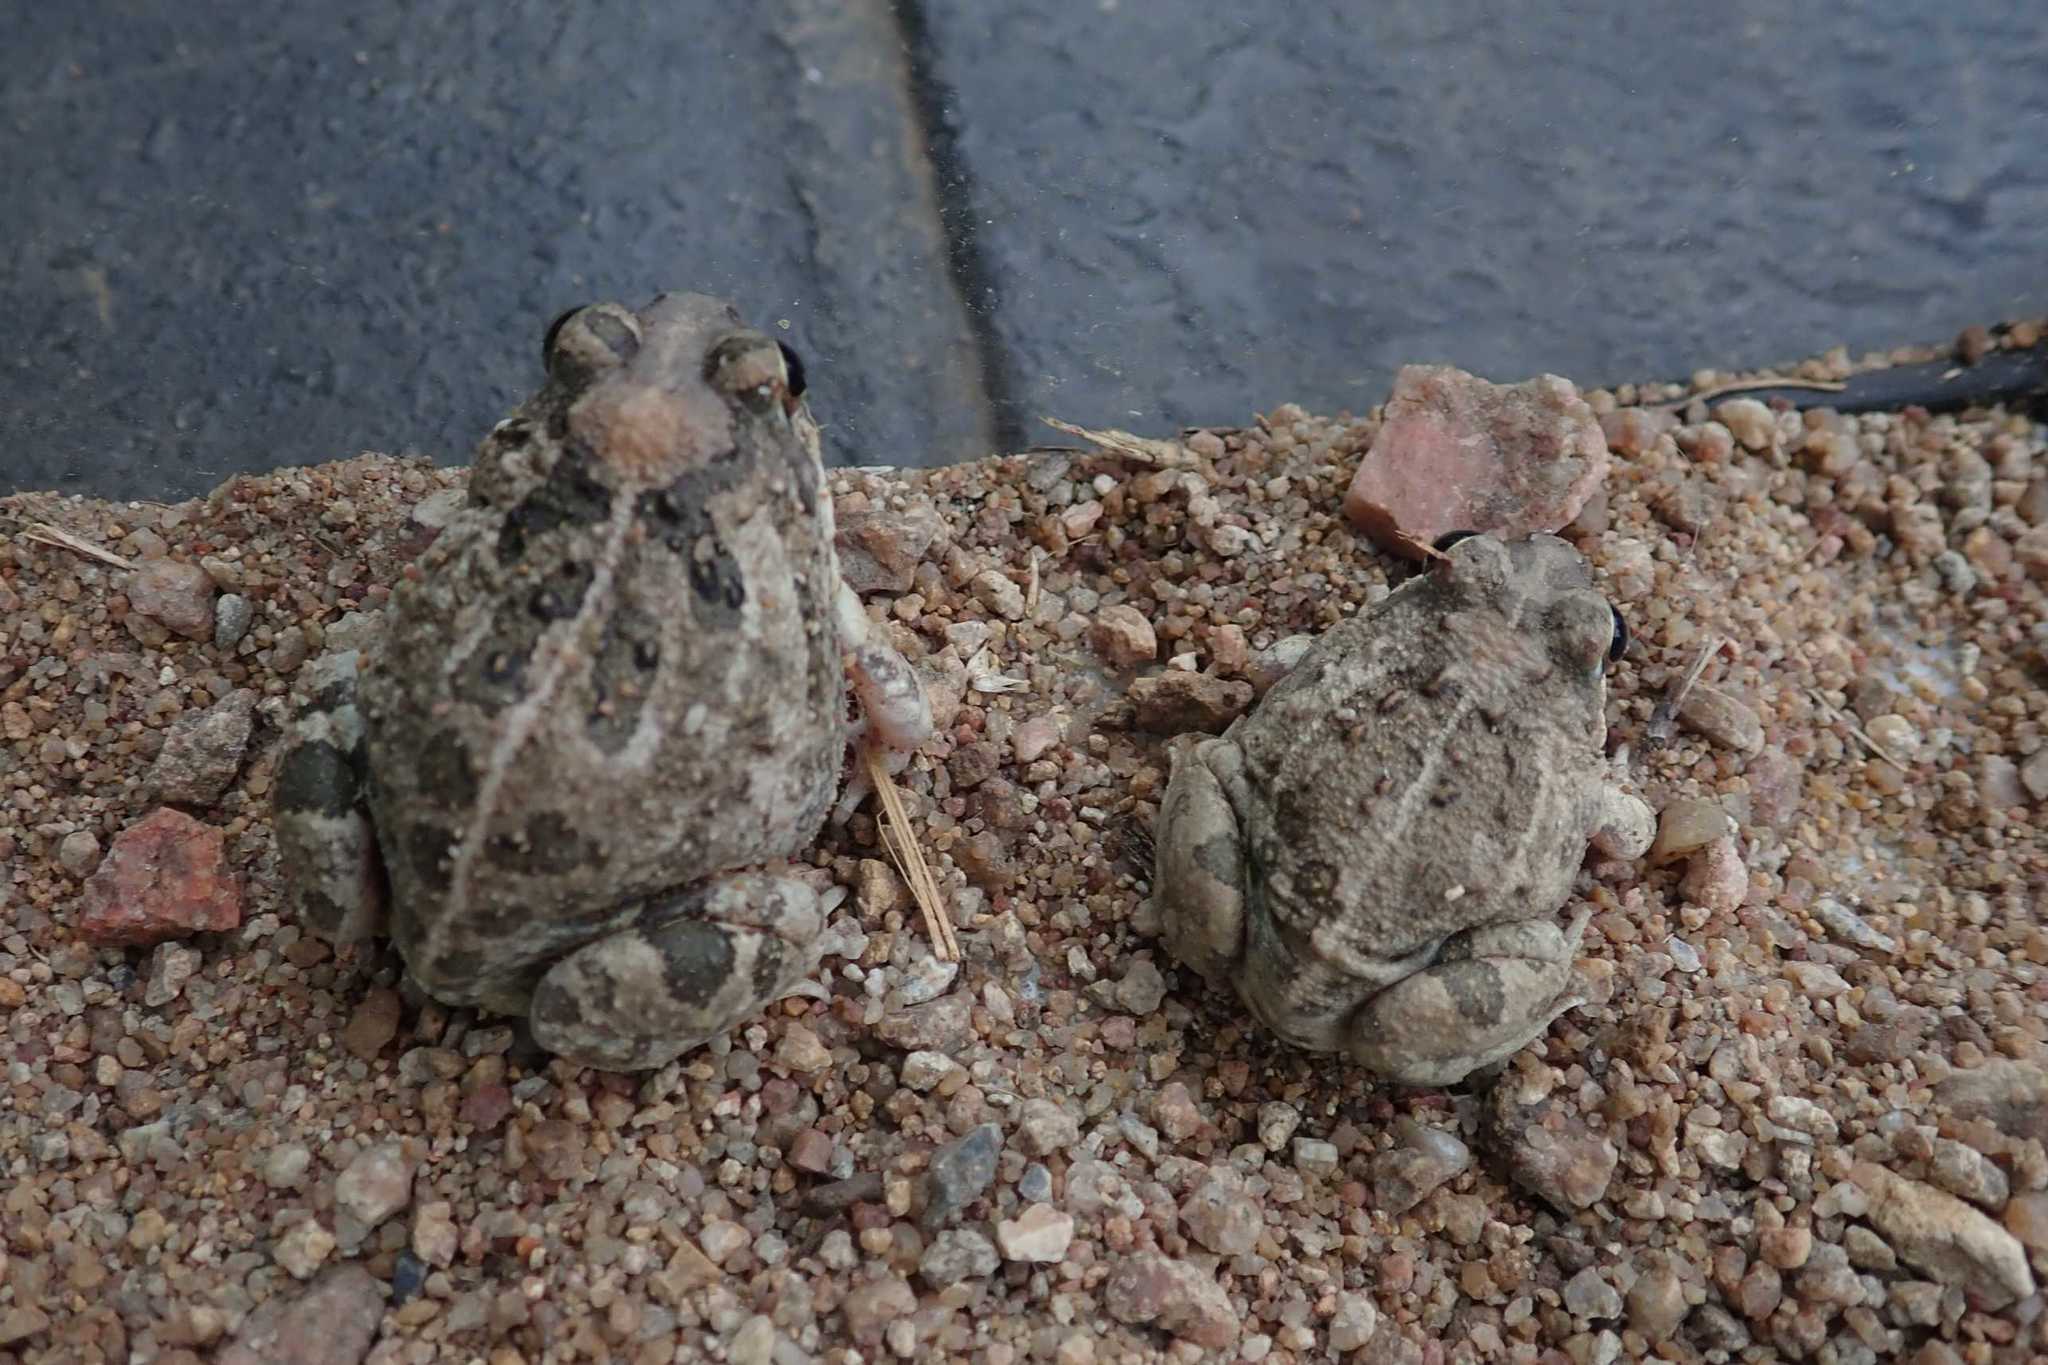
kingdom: Animalia
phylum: Chordata
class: Amphibia
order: Anura
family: Pyxicephalidae
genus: Tomopterna
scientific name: Tomopterna
